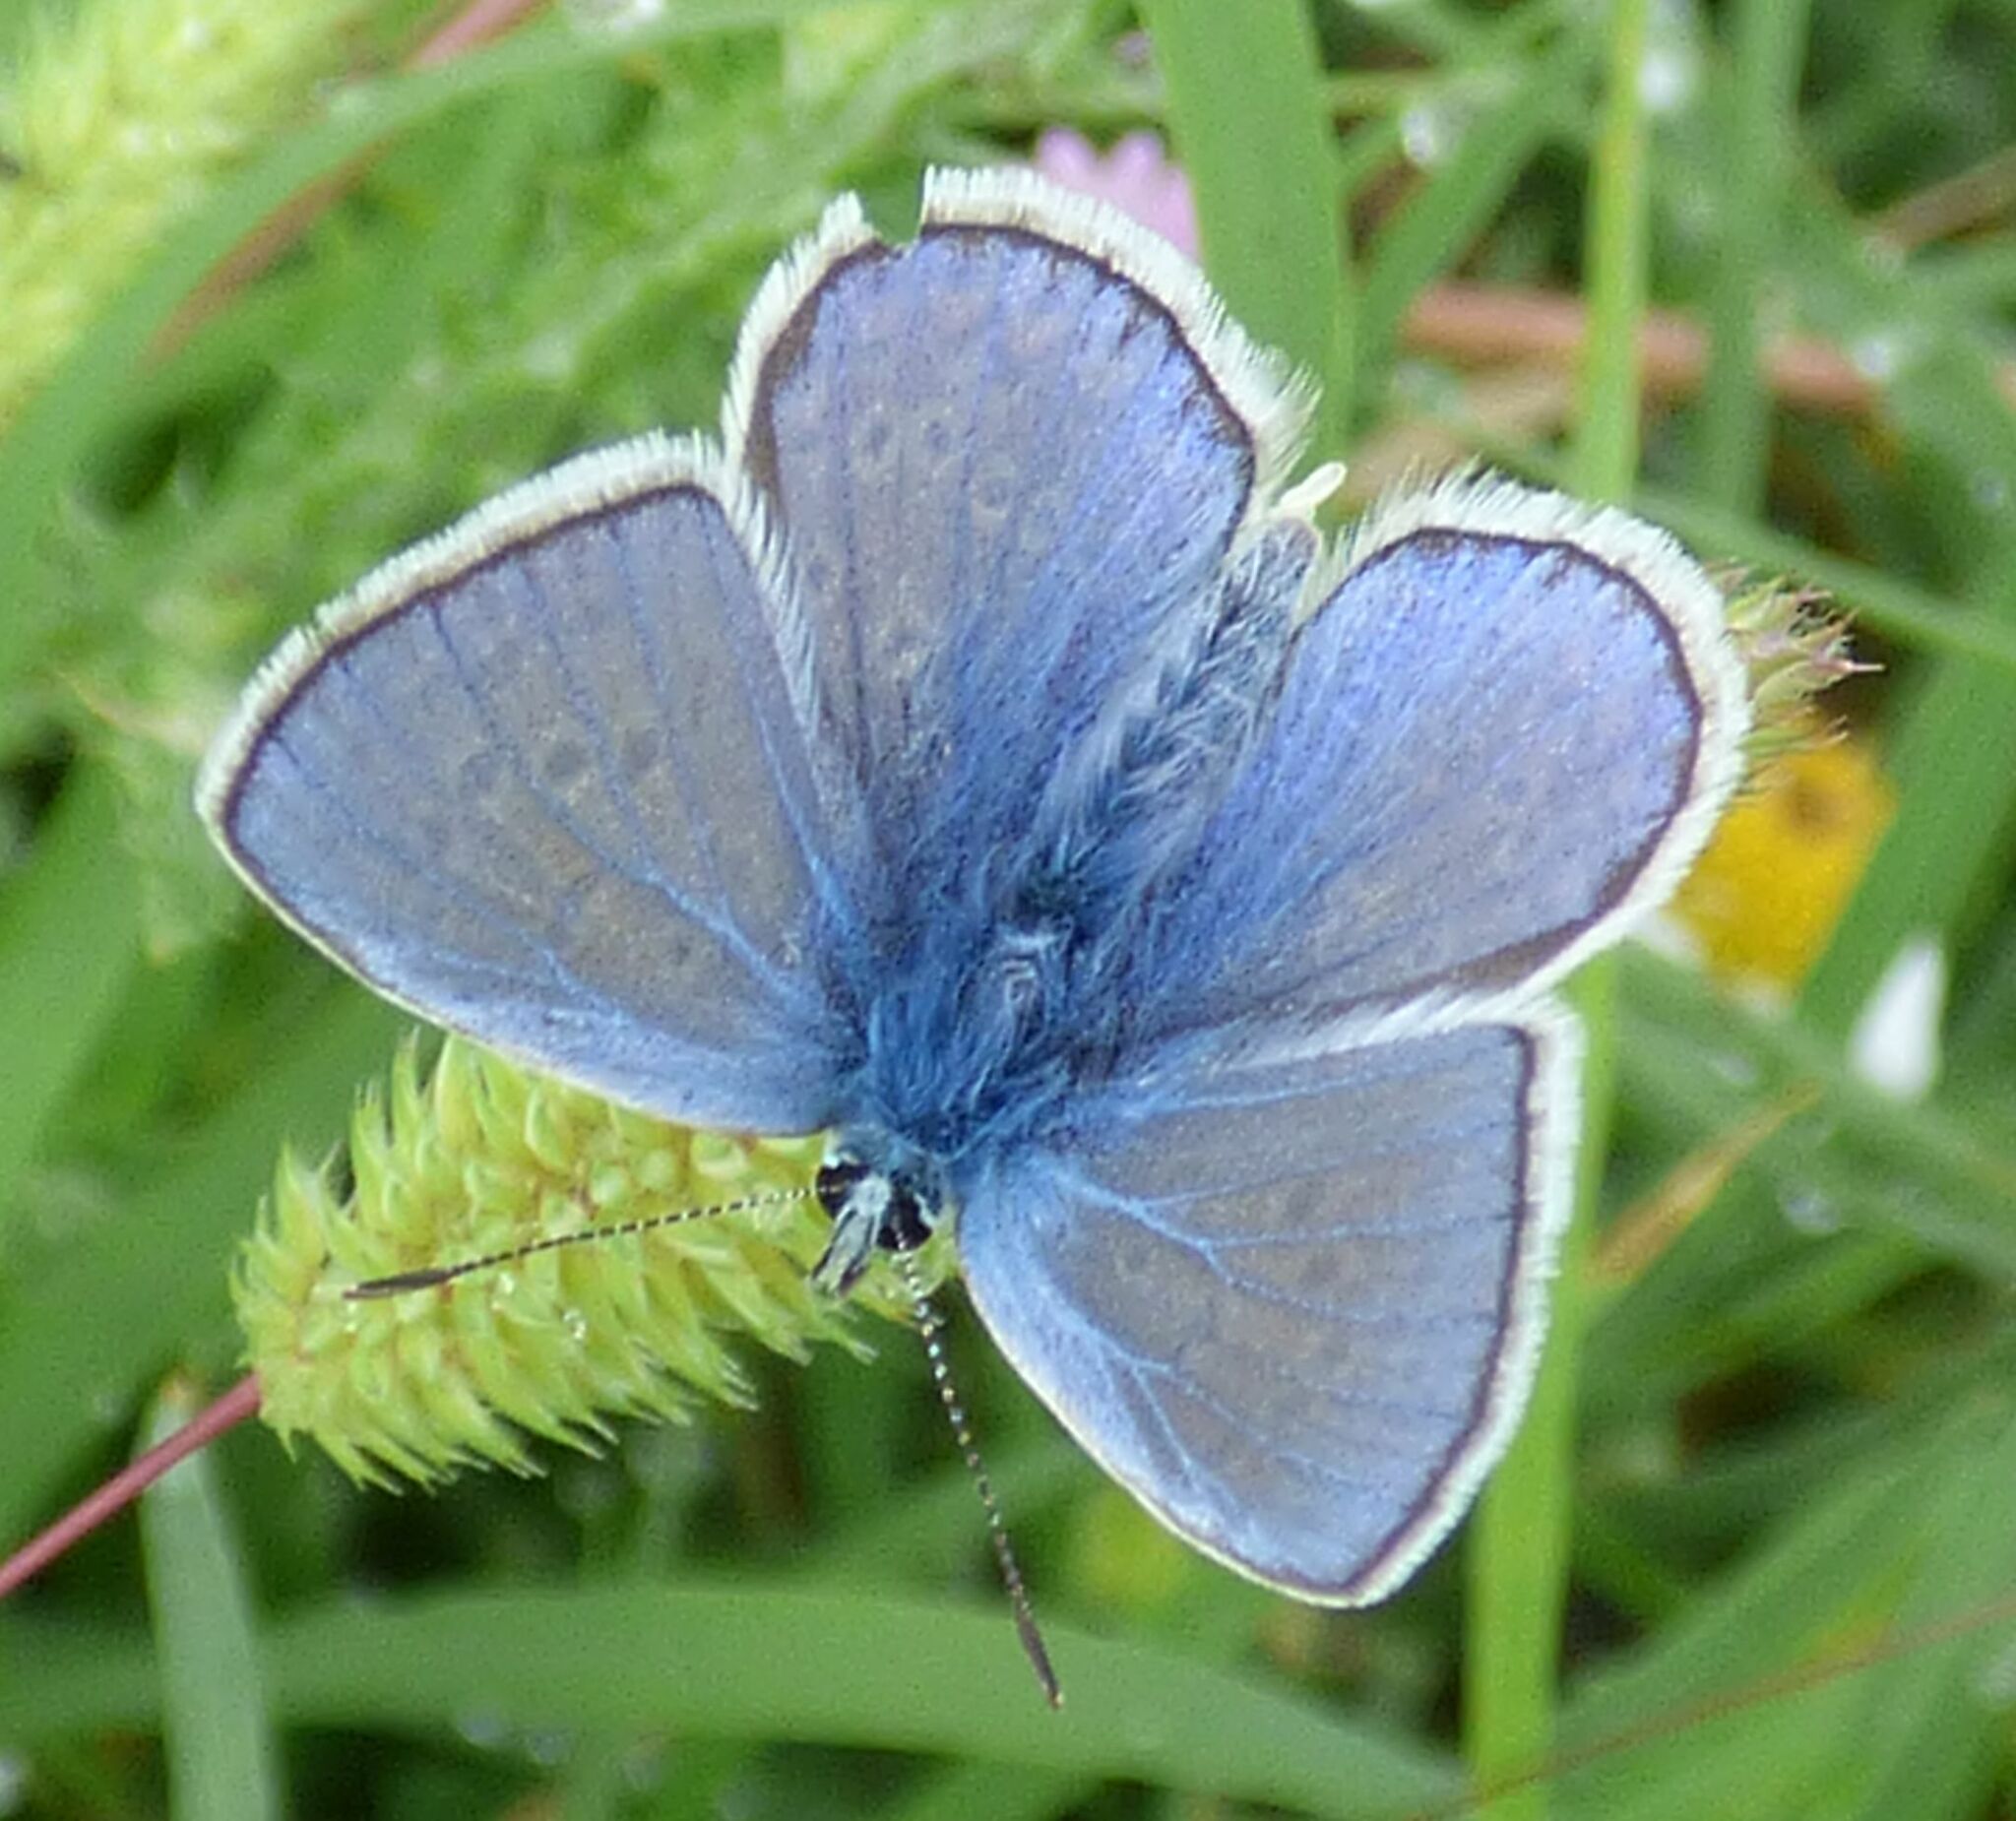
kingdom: Animalia
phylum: Arthropoda
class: Insecta
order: Lepidoptera
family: Lycaenidae
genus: Polyommatus
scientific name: Polyommatus icarus
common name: Common blue
